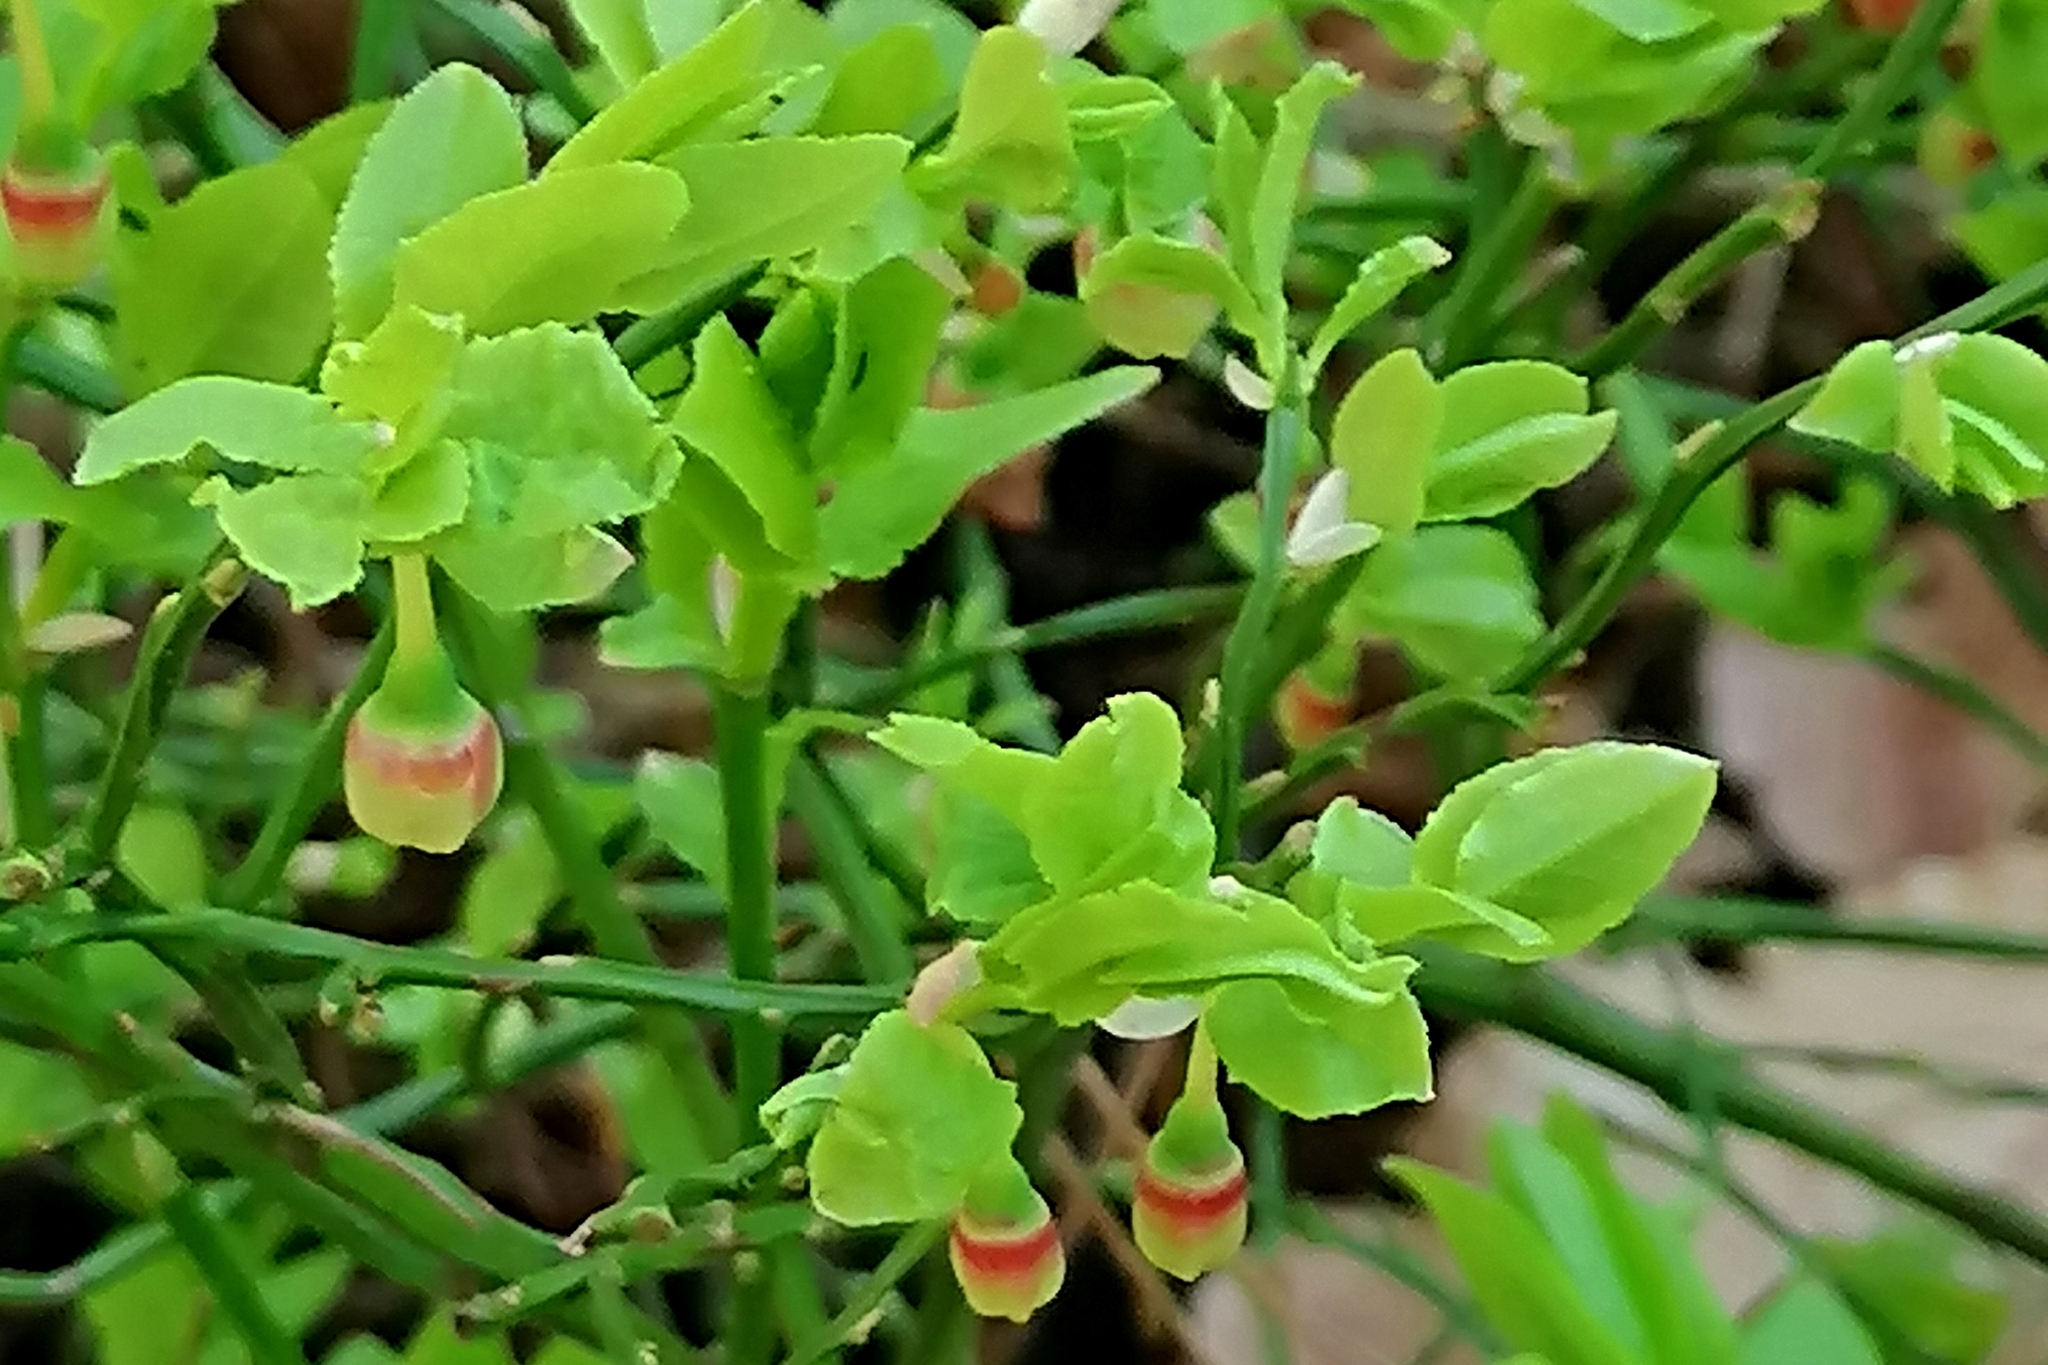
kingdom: Plantae
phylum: Tracheophyta
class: Magnoliopsida
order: Ericales
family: Ericaceae
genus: Vaccinium
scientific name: Vaccinium myrtillus
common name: Bilberry
